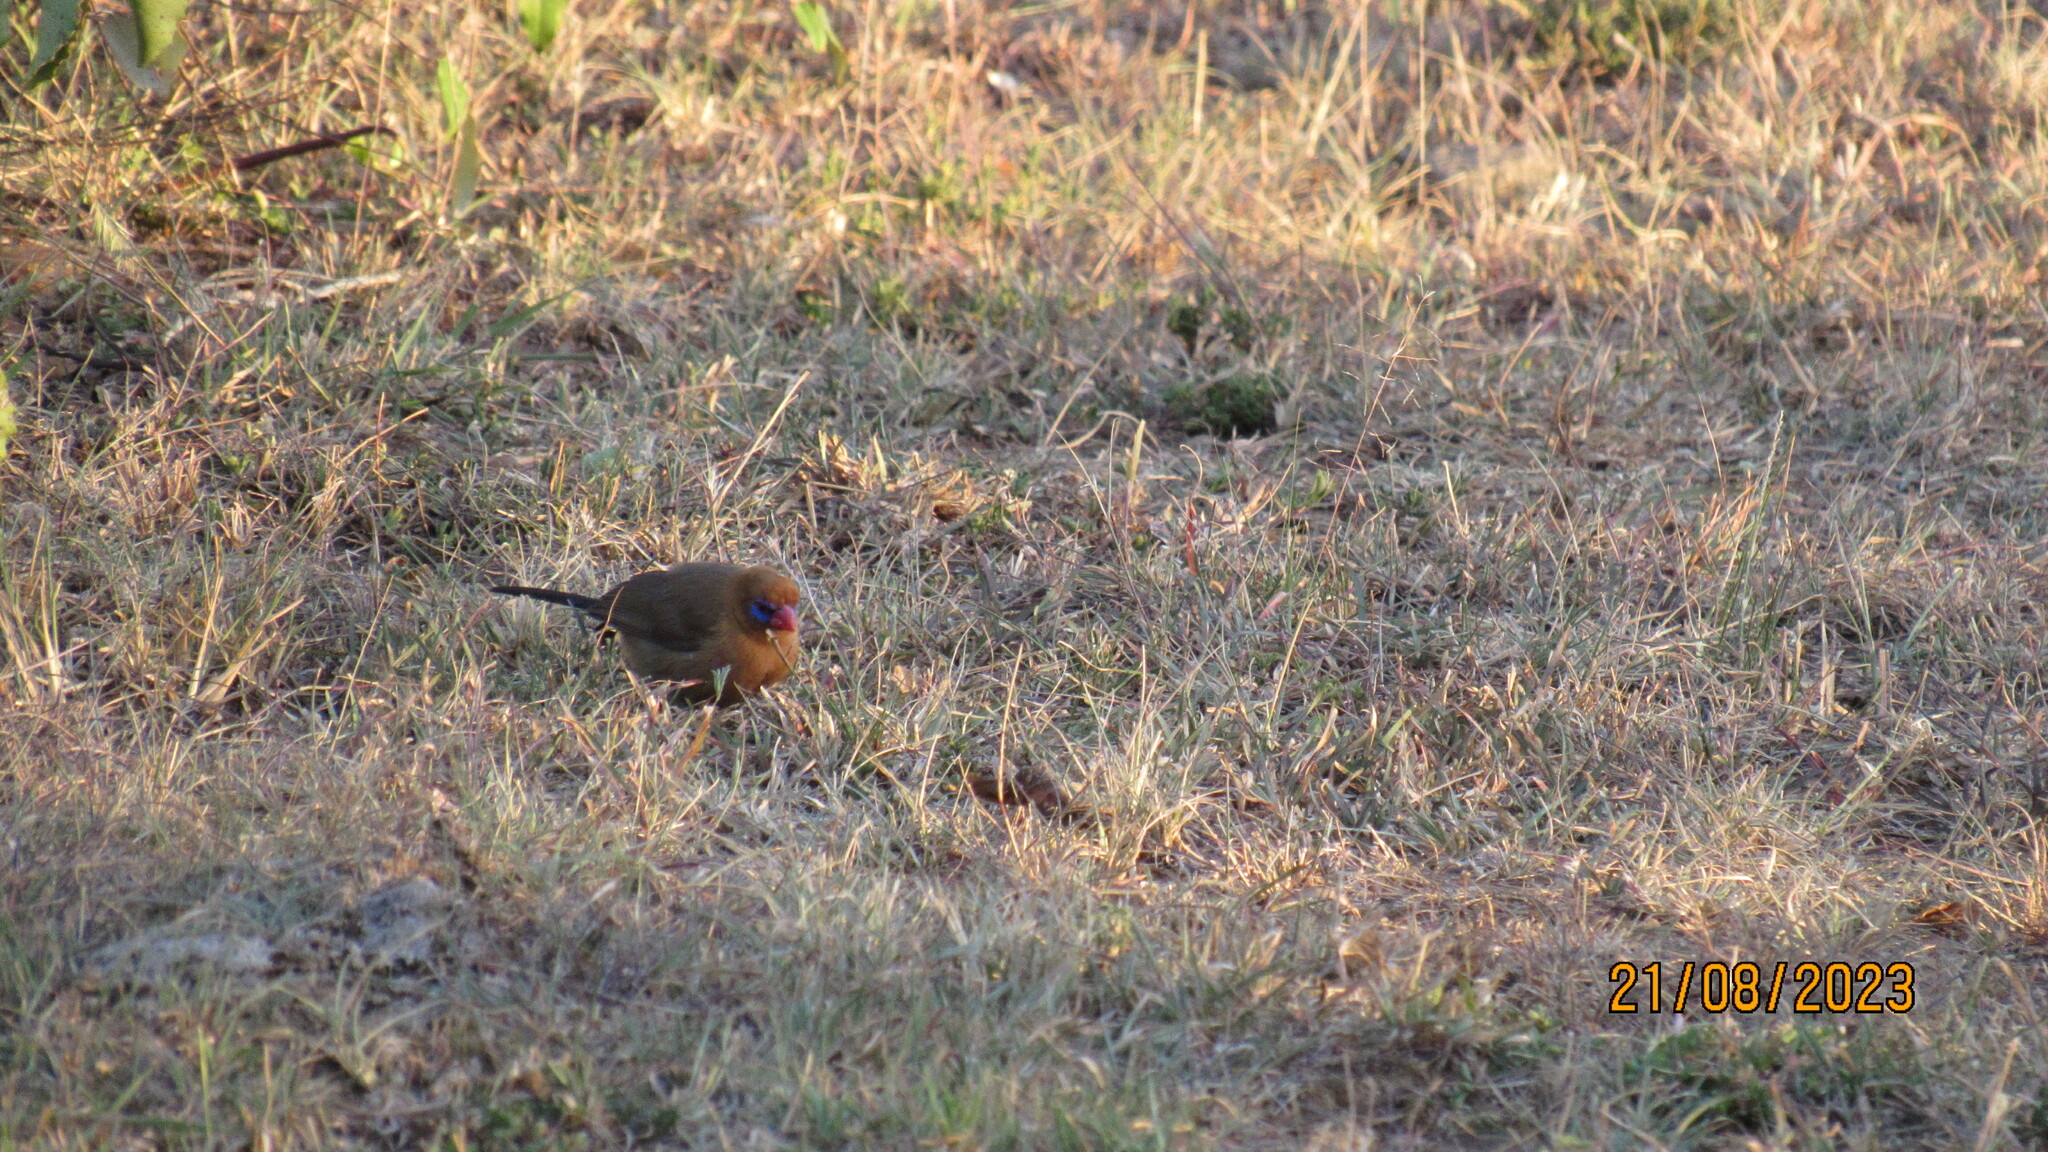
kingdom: Animalia
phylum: Chordata
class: Aves
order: Passeriformes
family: Estrildidae
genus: Uraeginthus
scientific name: Uraeginthus ianthinogaster
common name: Purple grenadier
